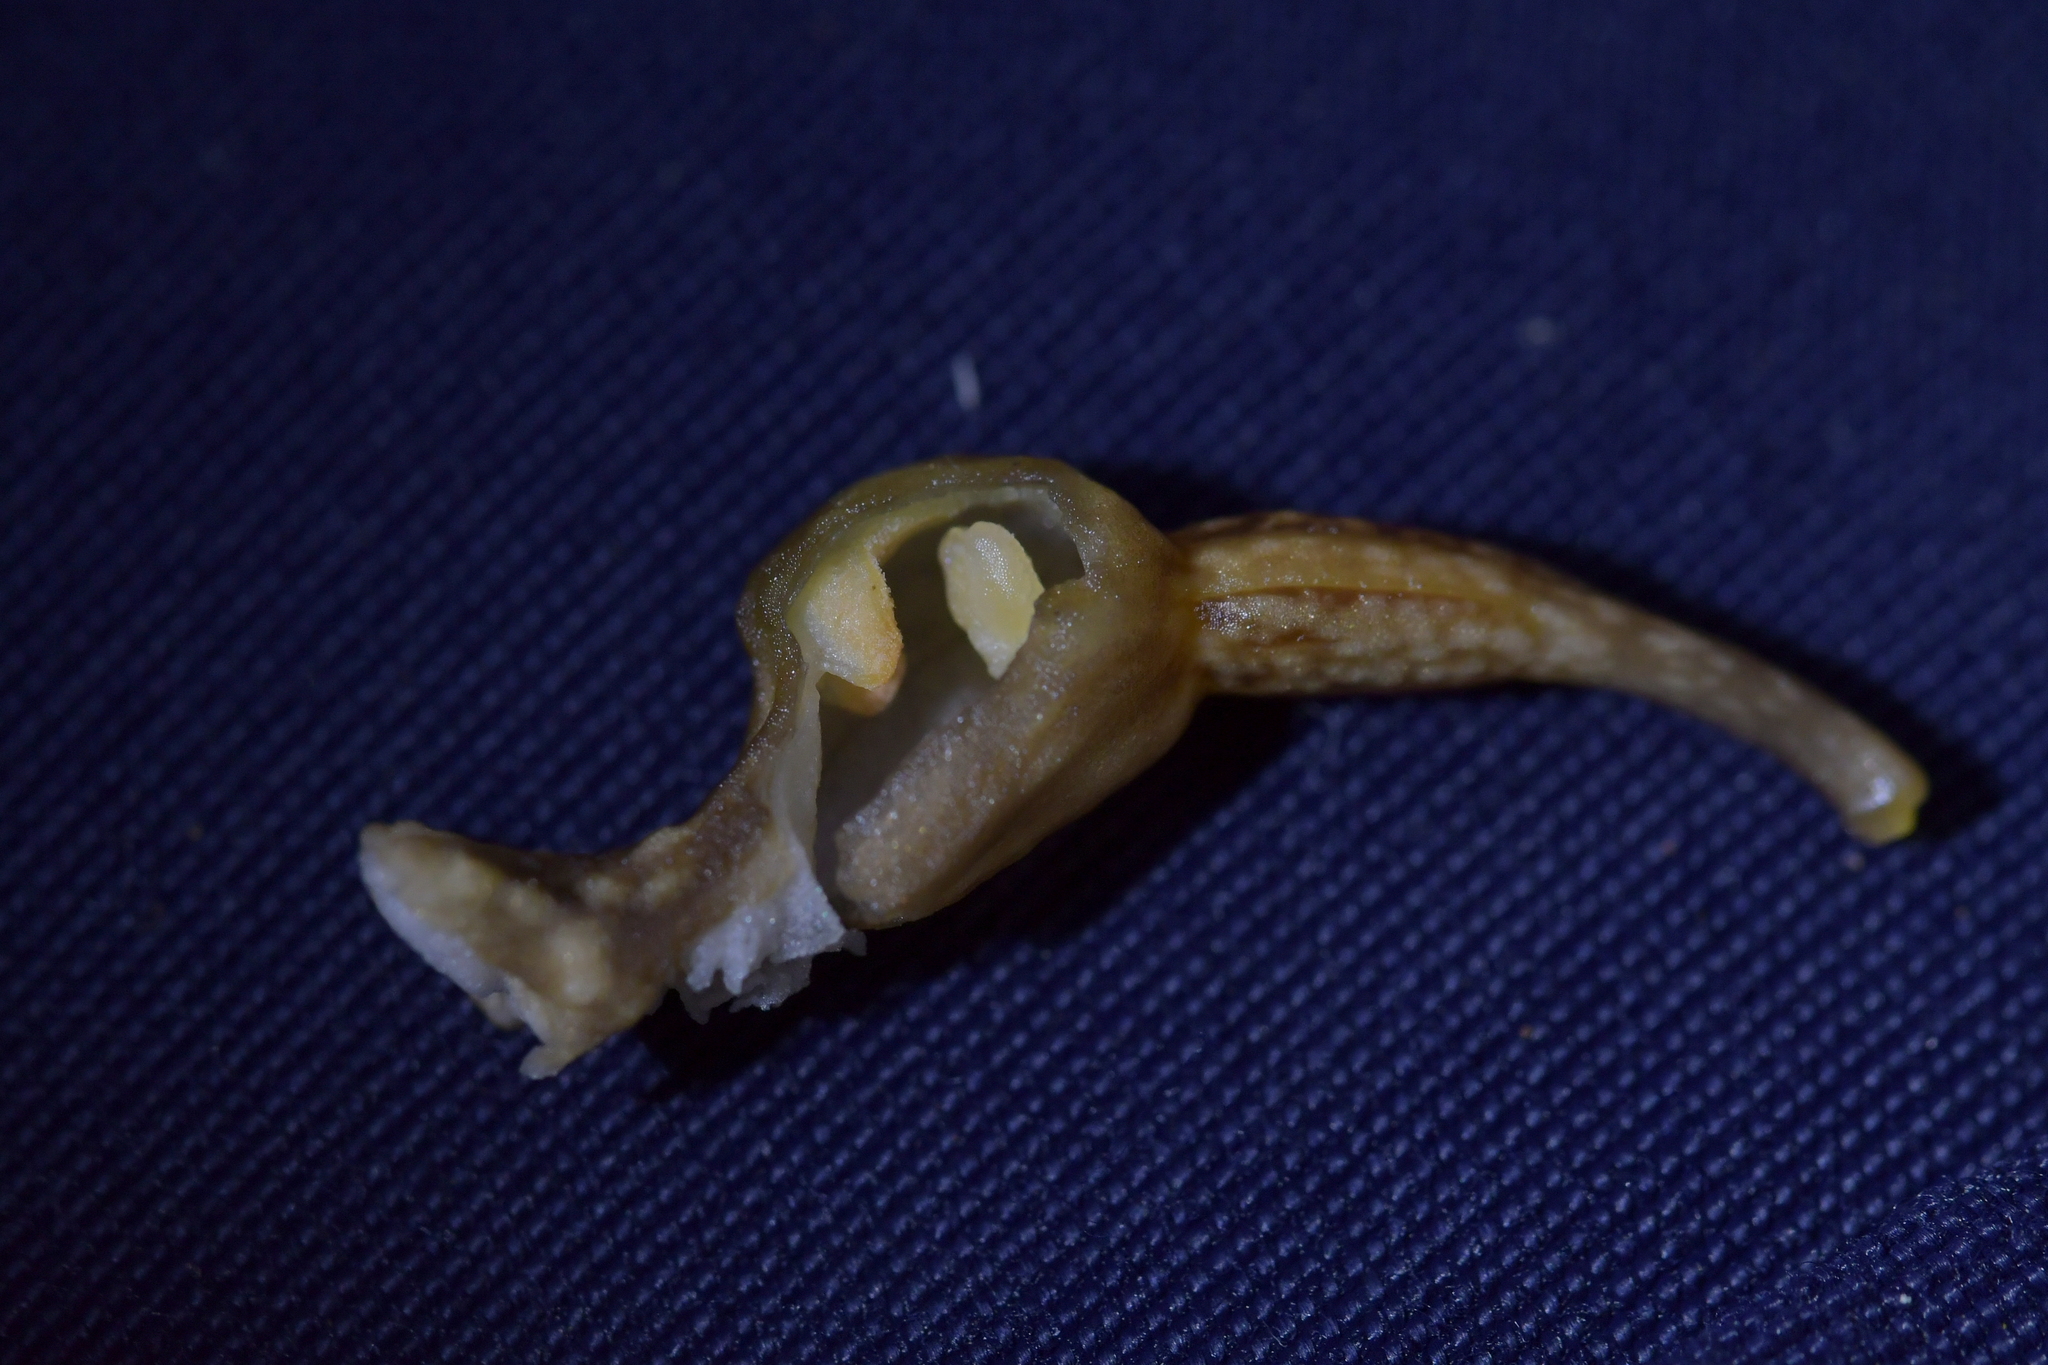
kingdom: Plantae
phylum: Tracheophyta
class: Liliopsida
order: Asparagales
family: Orchidaceae
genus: Gastrodia
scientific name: Gastrodia cunninghamii
